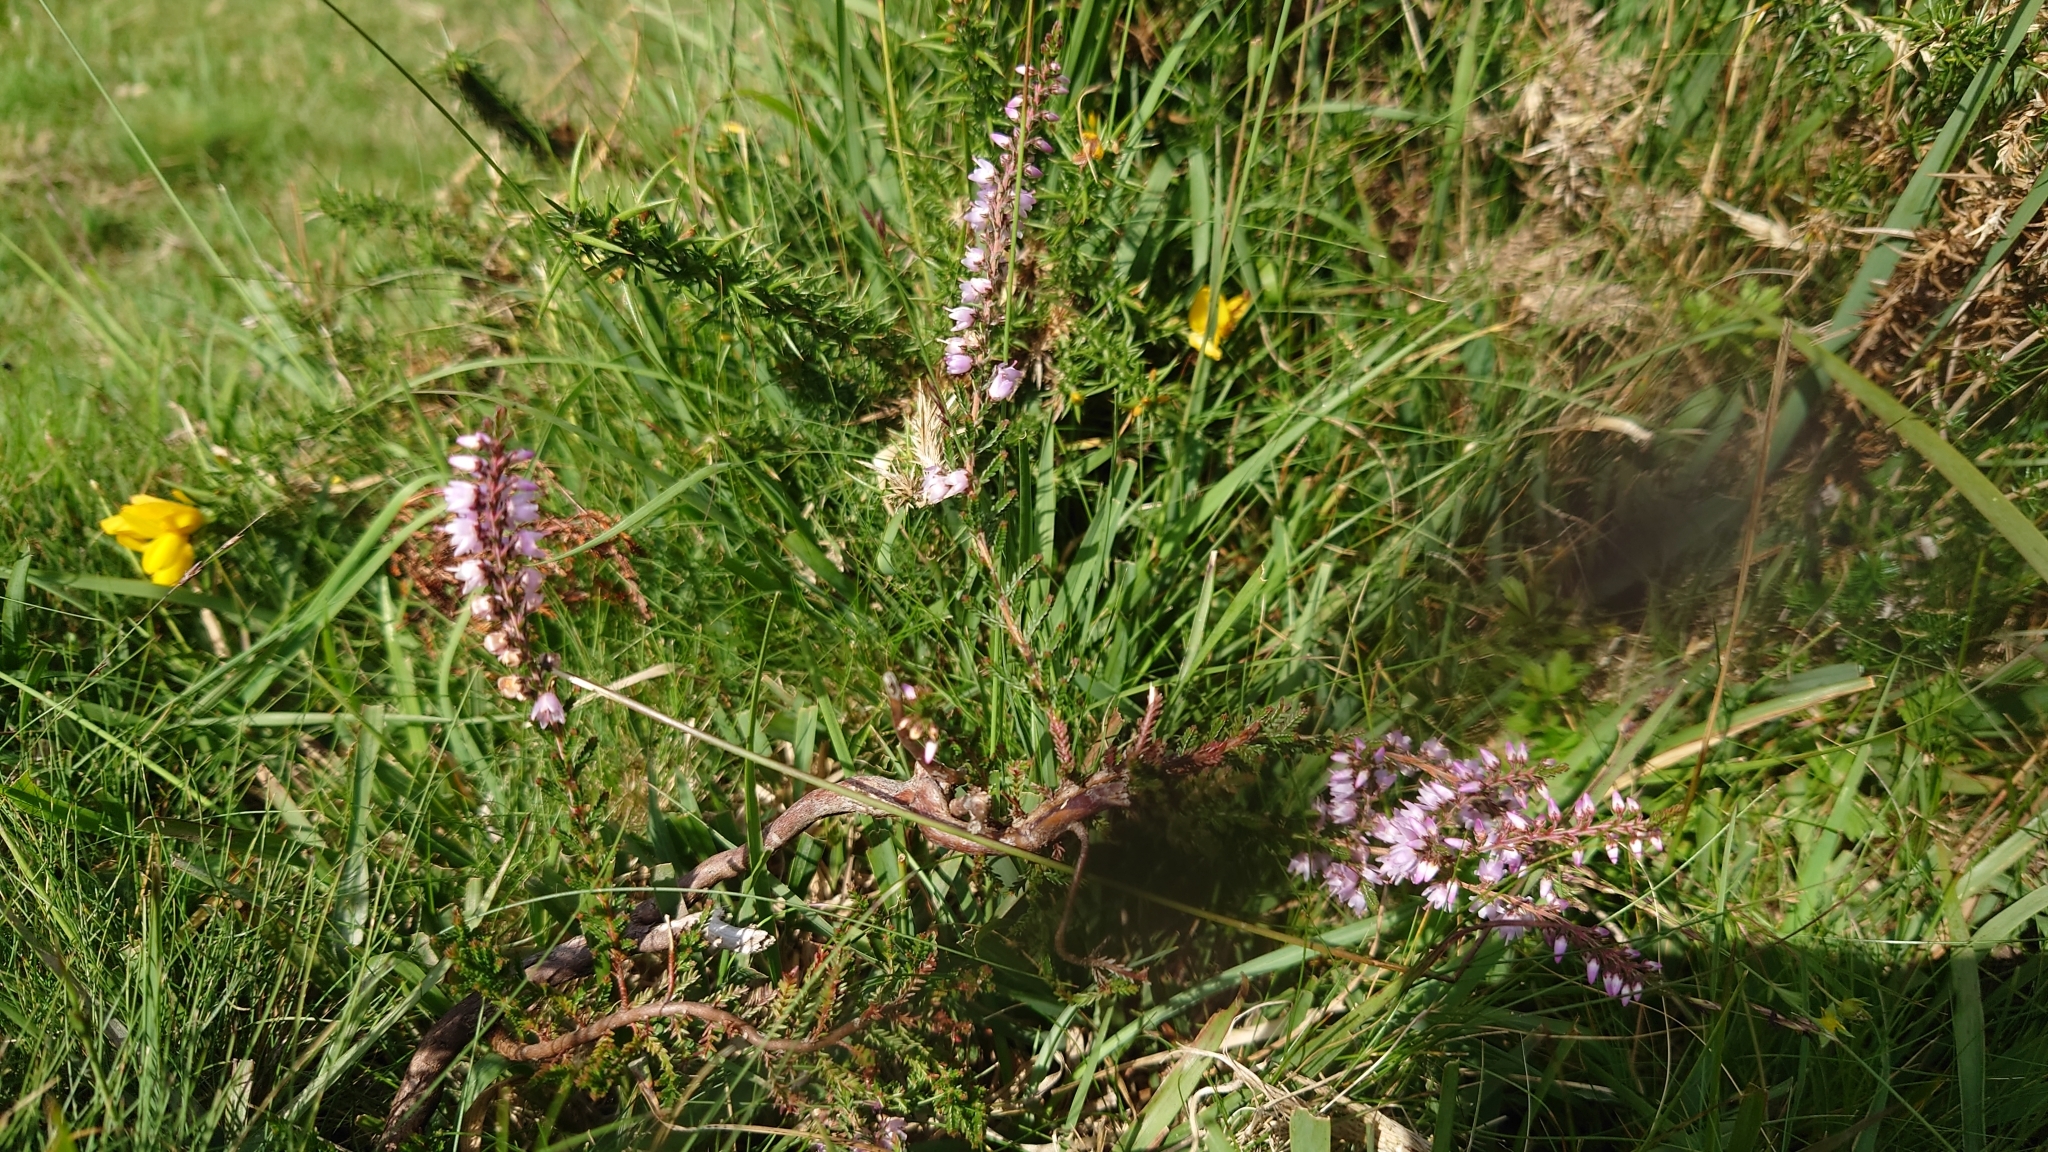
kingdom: Plantae
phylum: Tracheophyta
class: Magnoliopsida
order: Ericales
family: Ericaceae
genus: Calluna
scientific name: Calluna vulgaris
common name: Heather
